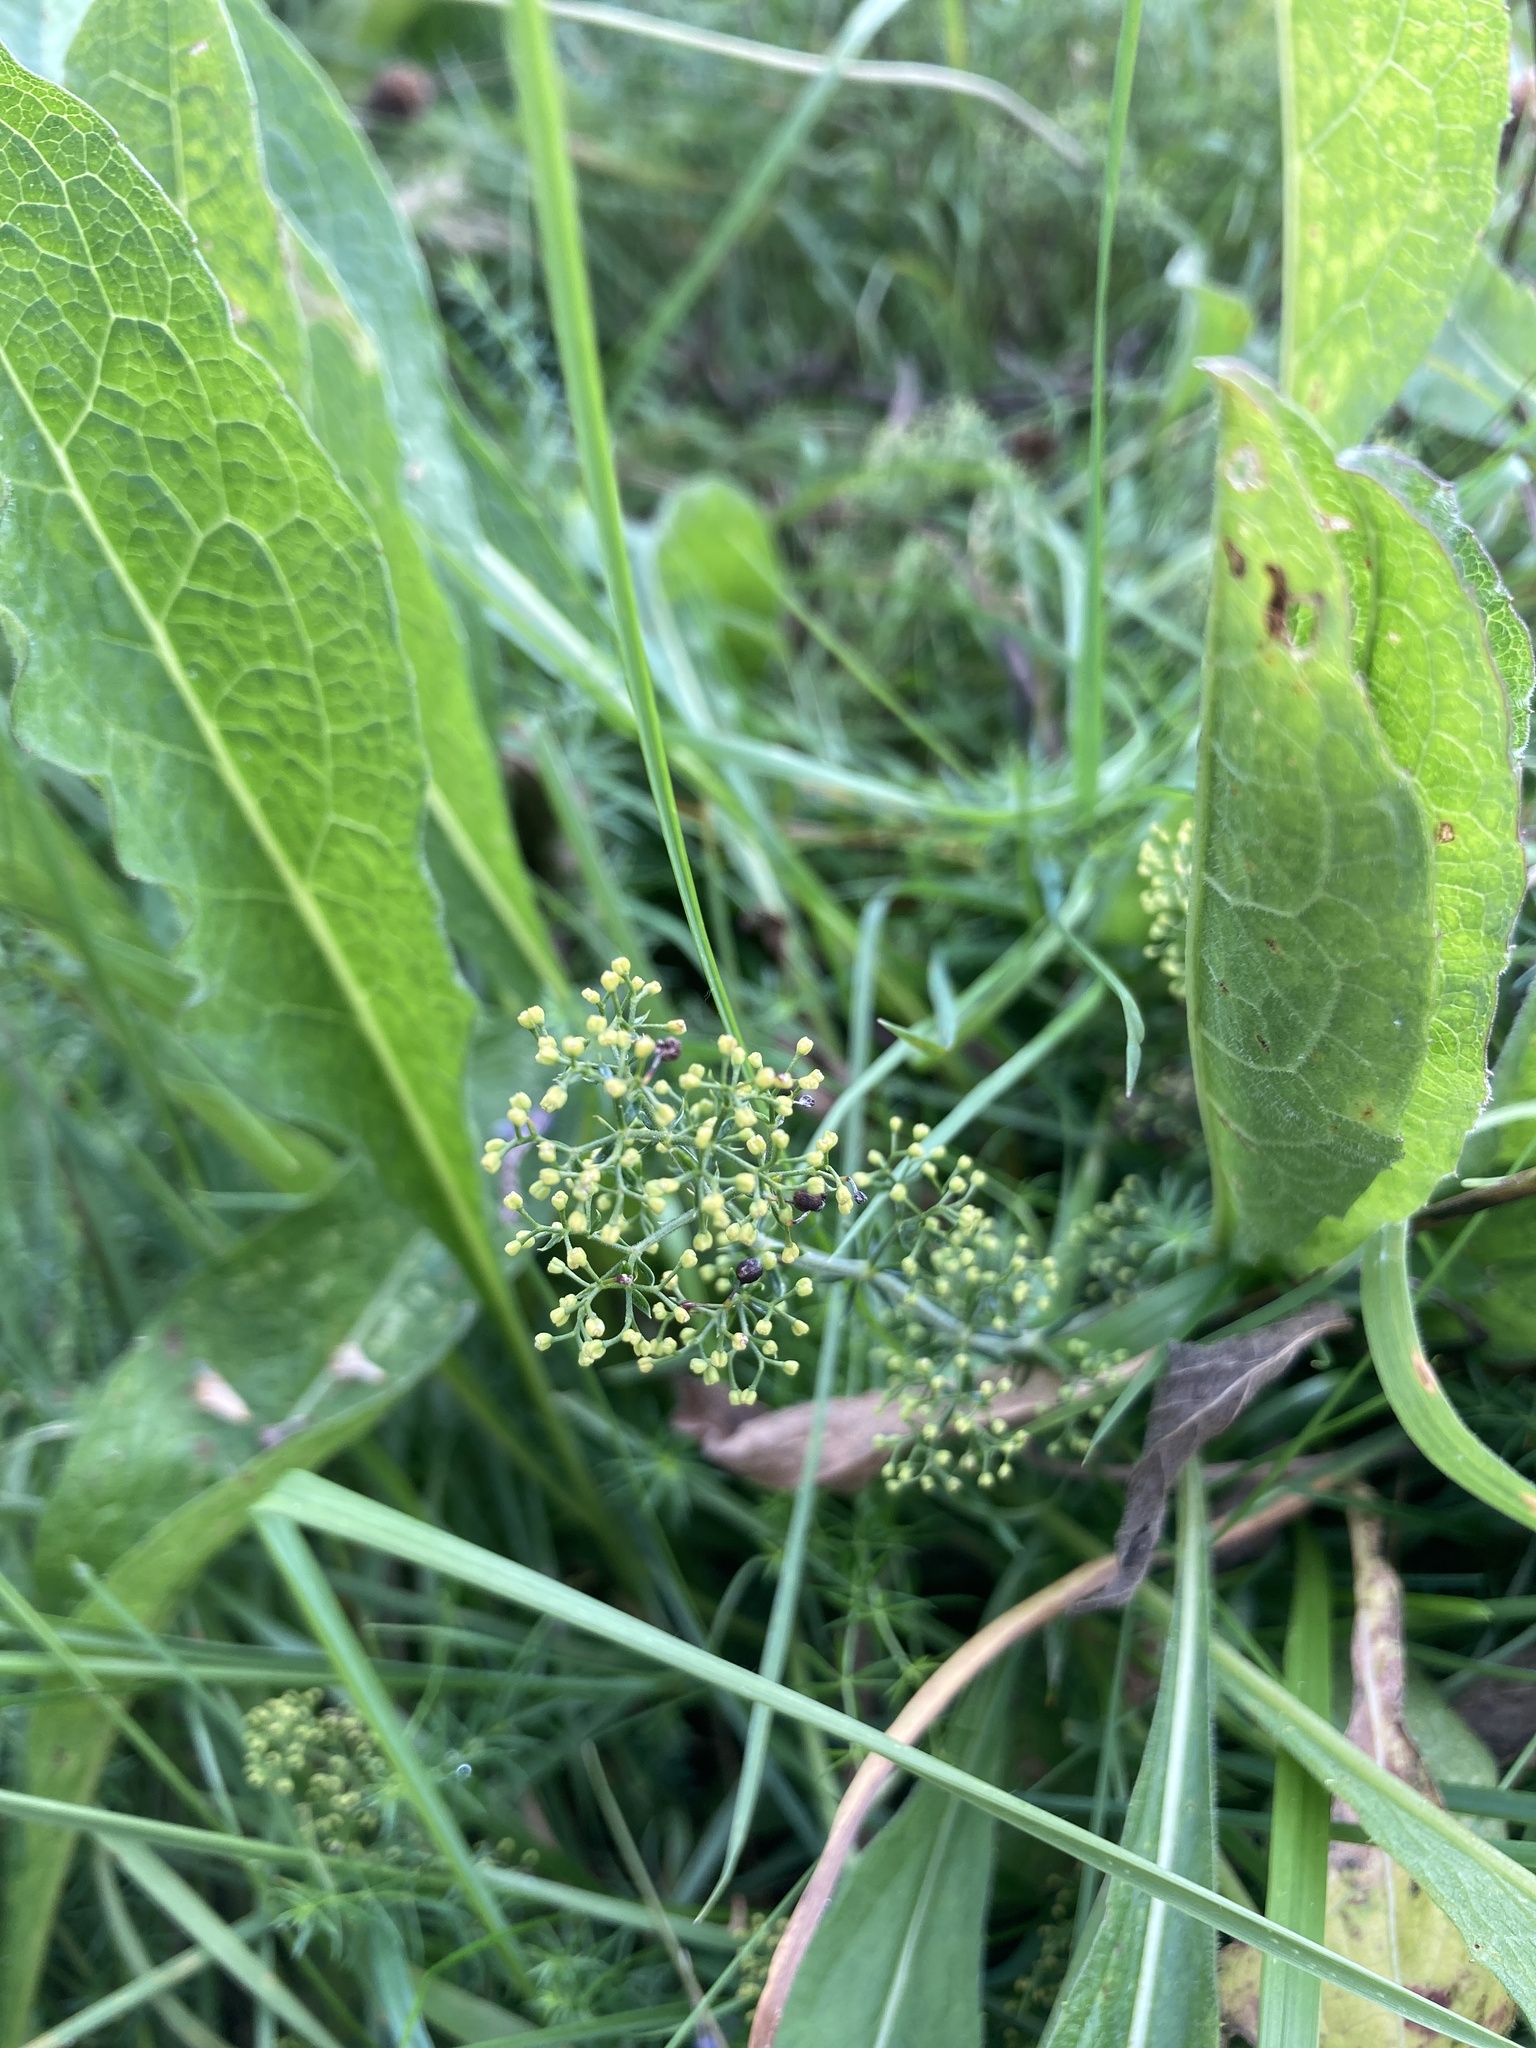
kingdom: Plantae
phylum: Tracheophyta
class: Magnoliopsida
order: Gentianales
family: Rubiaceae
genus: Galium
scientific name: Galium verum
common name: Lady's bedstraw
